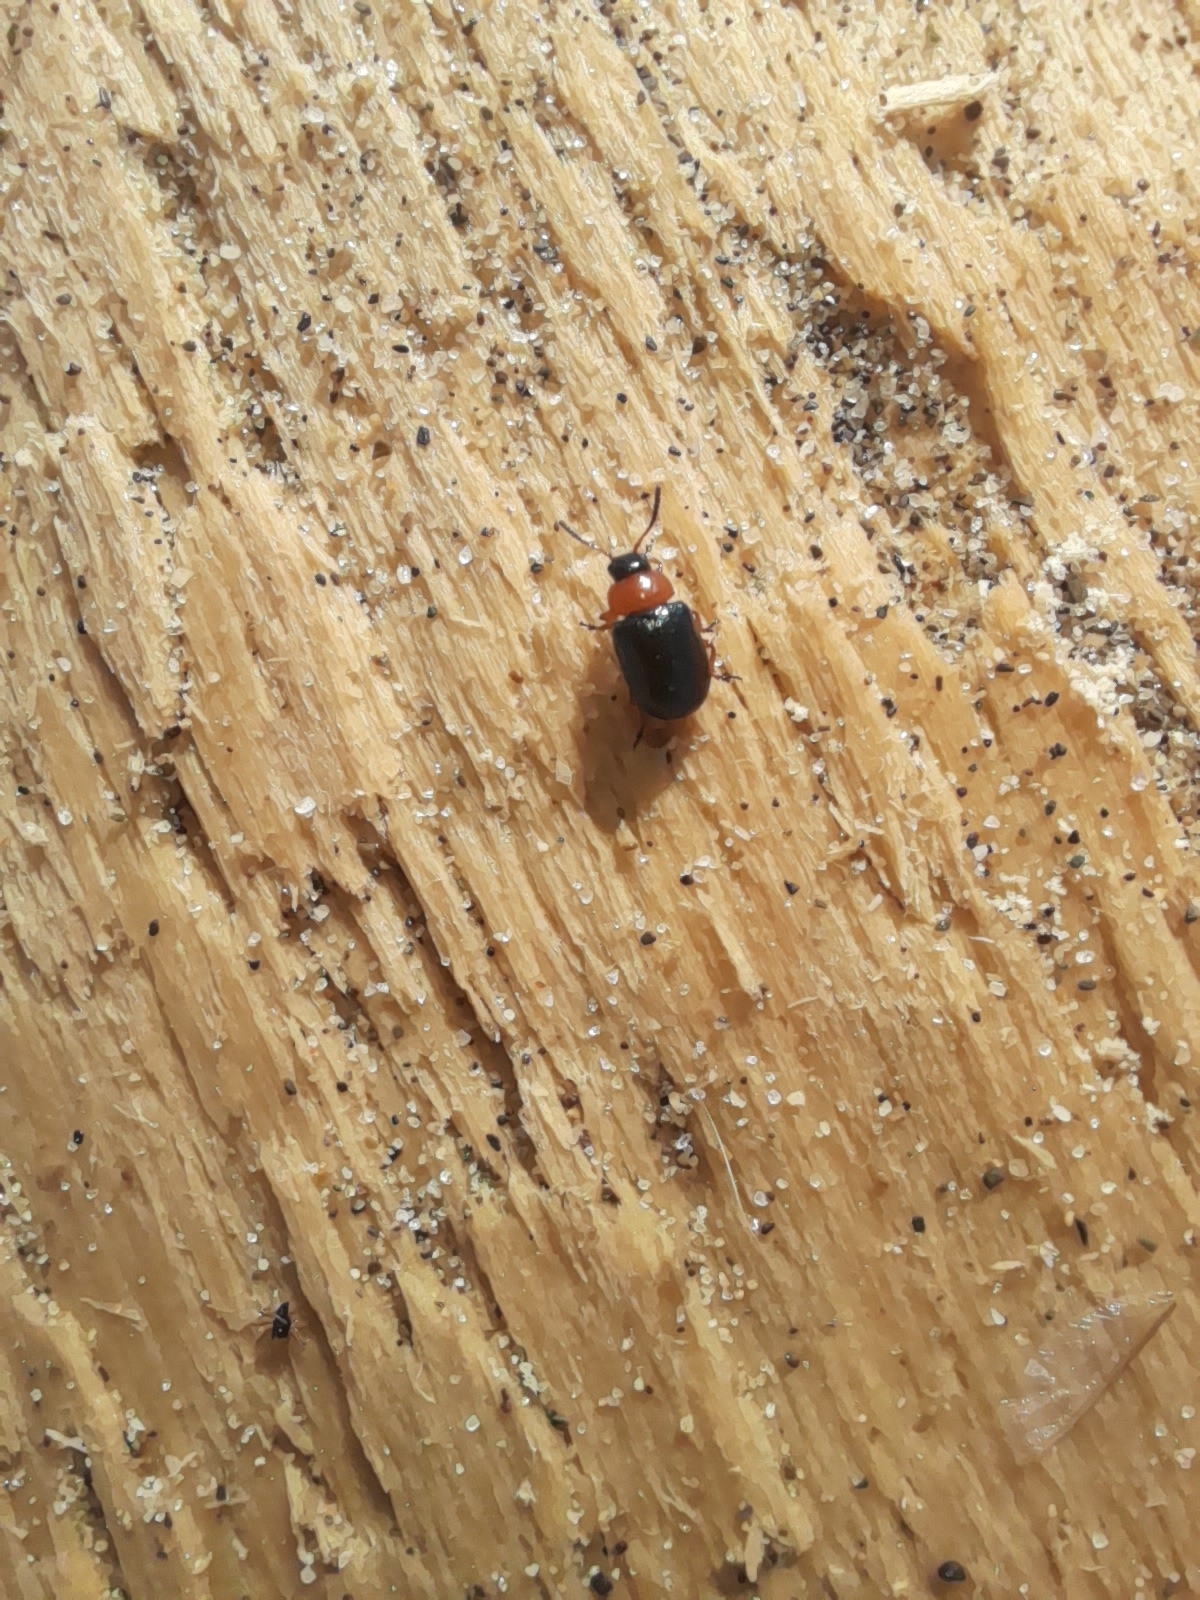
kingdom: Animalia
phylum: Arthropoda
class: Insecta
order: Coleoptera
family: Chrysomelidae
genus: Gastrophysa
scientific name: Gastrophysa polygoni
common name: Knotweed leaf beetle
